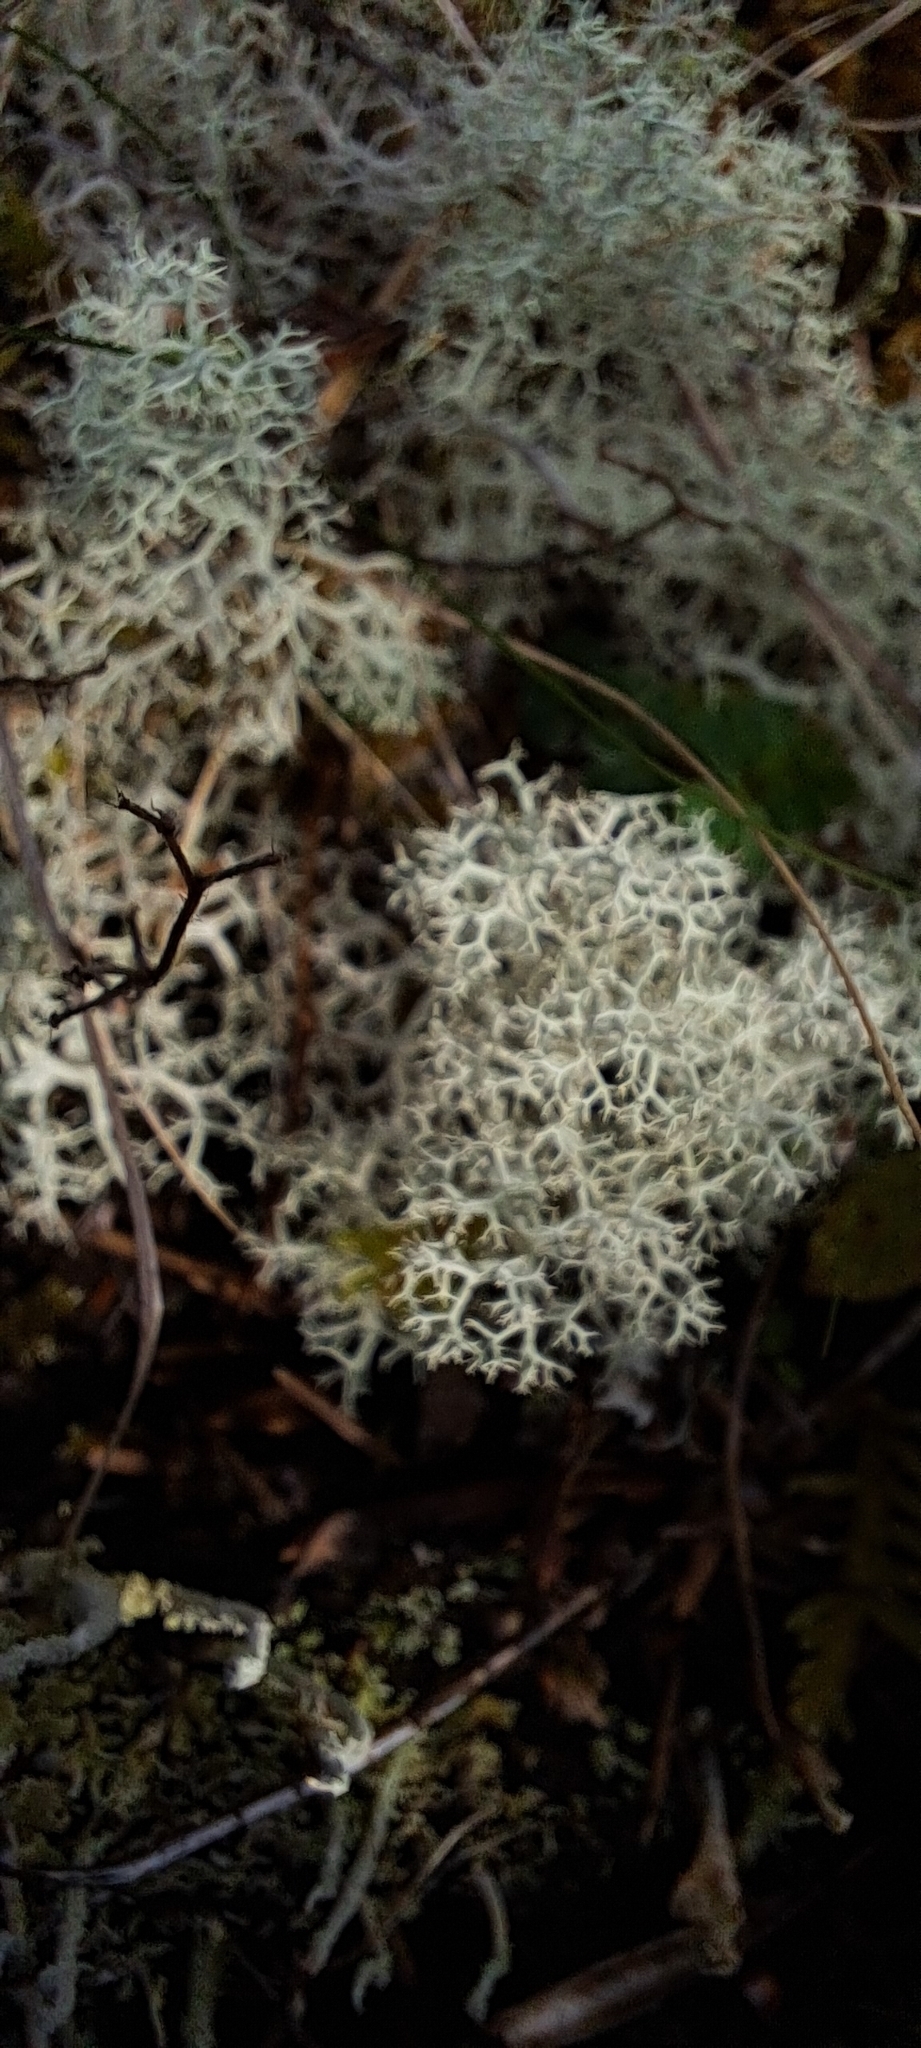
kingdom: Fungi
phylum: Ascomycota
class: Lecanoromycetes
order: Lecanorales
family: Cladoniaceae
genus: Cladonia
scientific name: Cladonia portentosa
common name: Reindeer lichen
